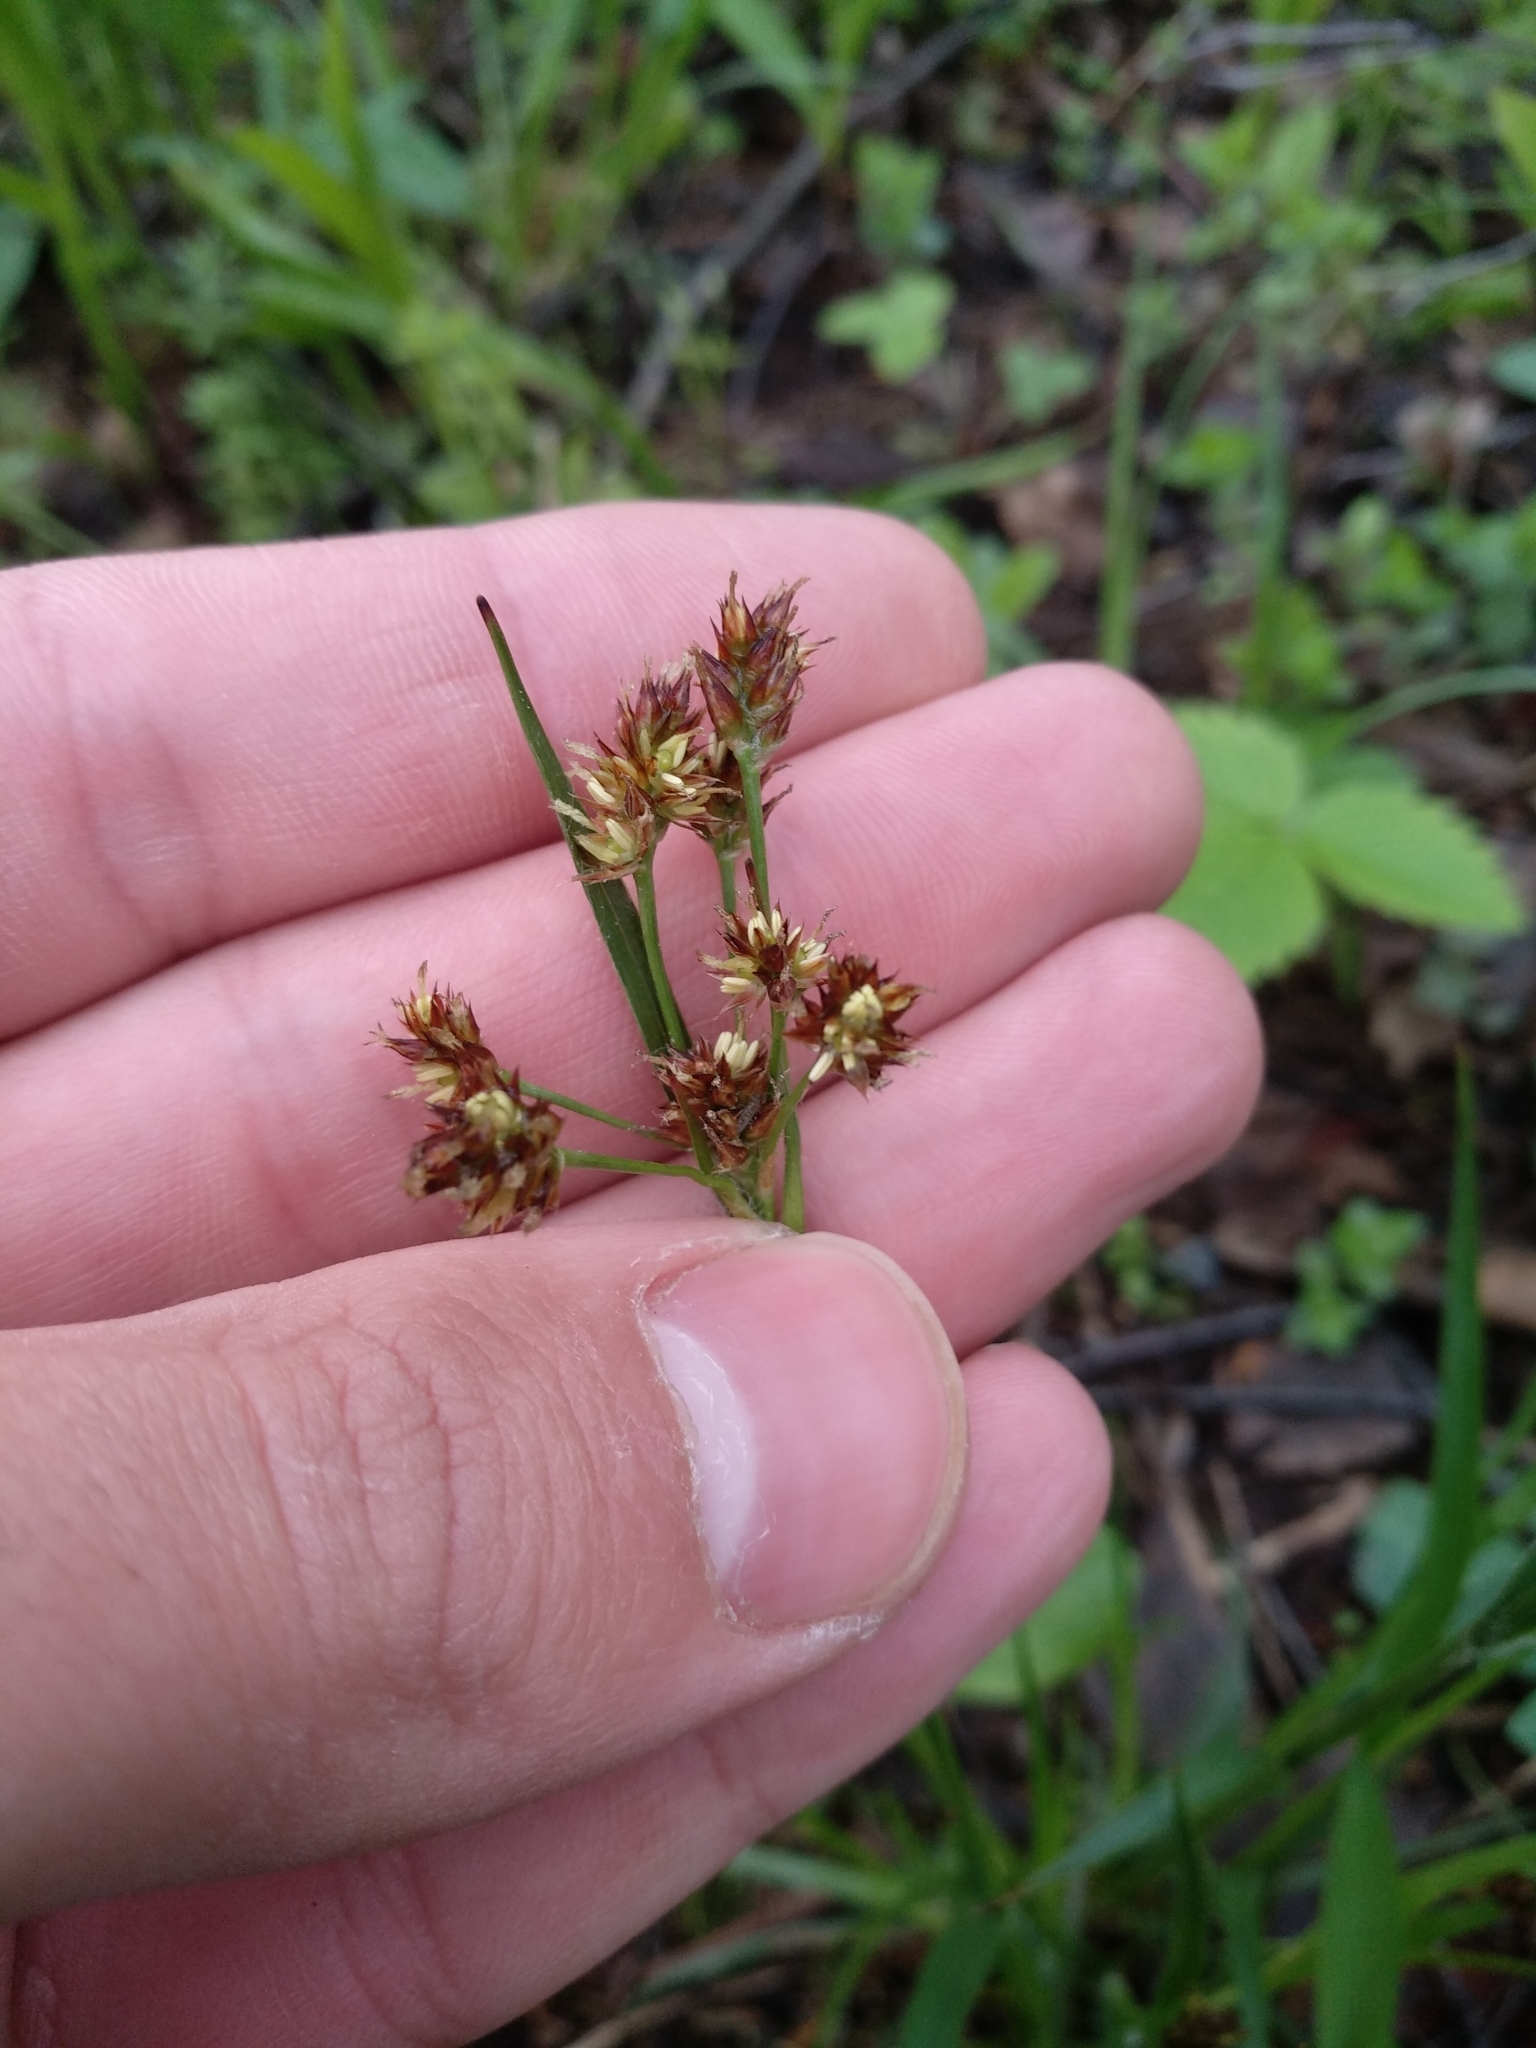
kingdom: Plantae
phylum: Tracheophyta
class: Liliopsida
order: Poales
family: Juncaceae
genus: Luzula
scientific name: Luzula multiflora
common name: Heath wood-rush
